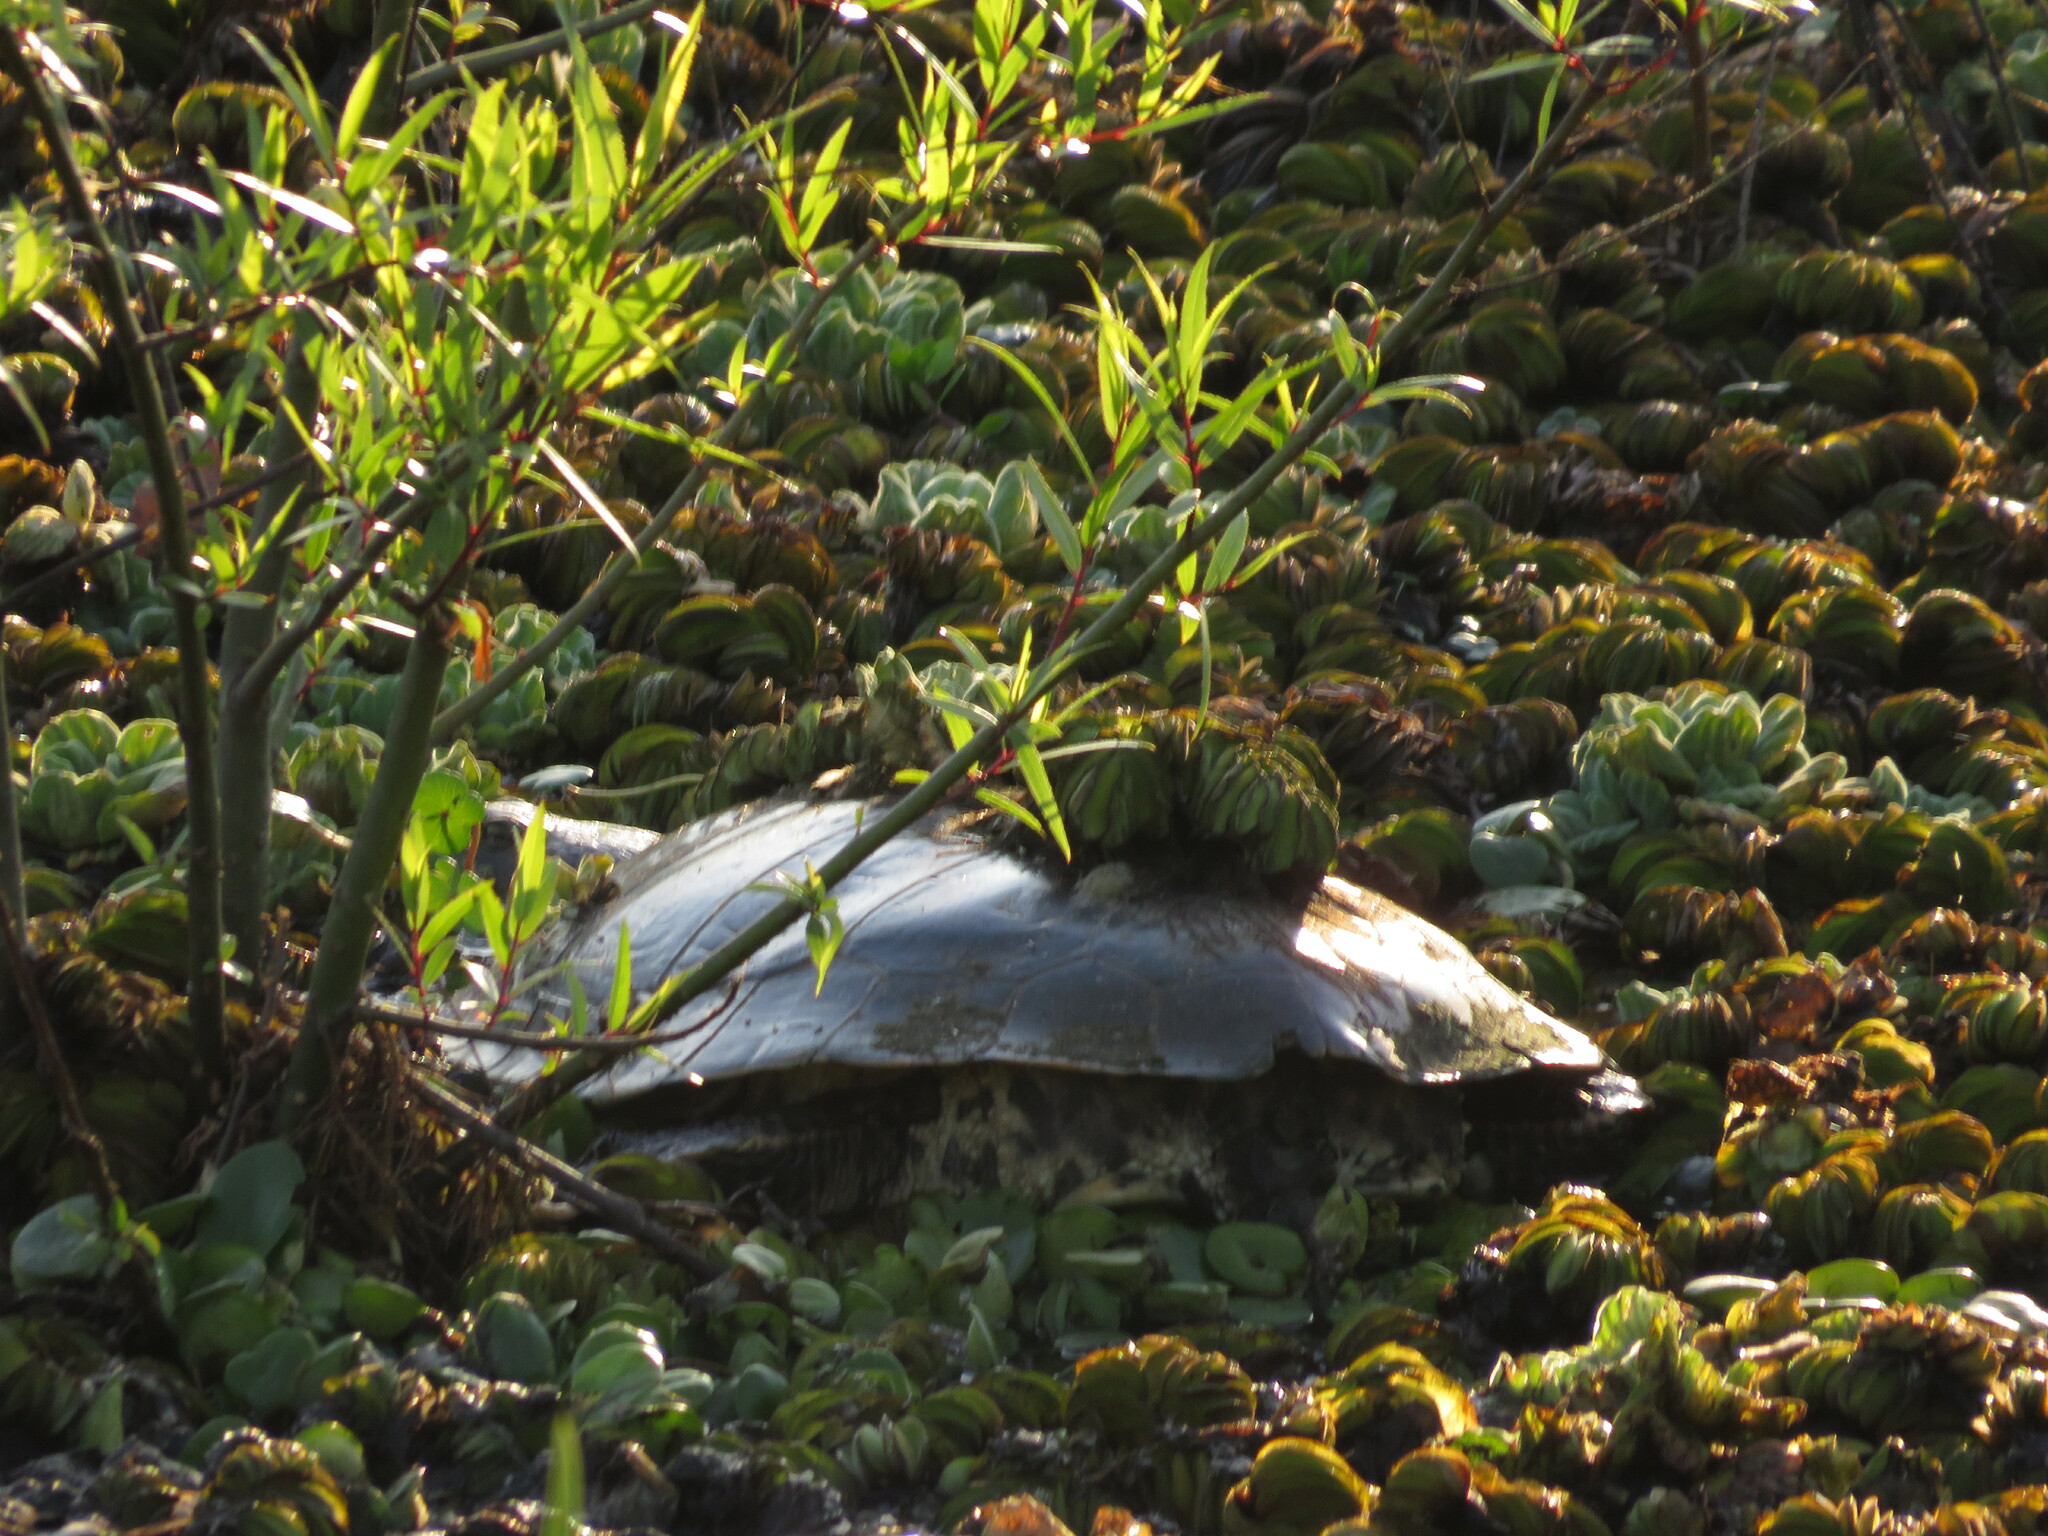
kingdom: Animalia
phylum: Chordata
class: Testudines
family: Chelidae
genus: Phrynops
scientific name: Phrynops hilarii
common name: Side-necked turtle of saint hillaire
